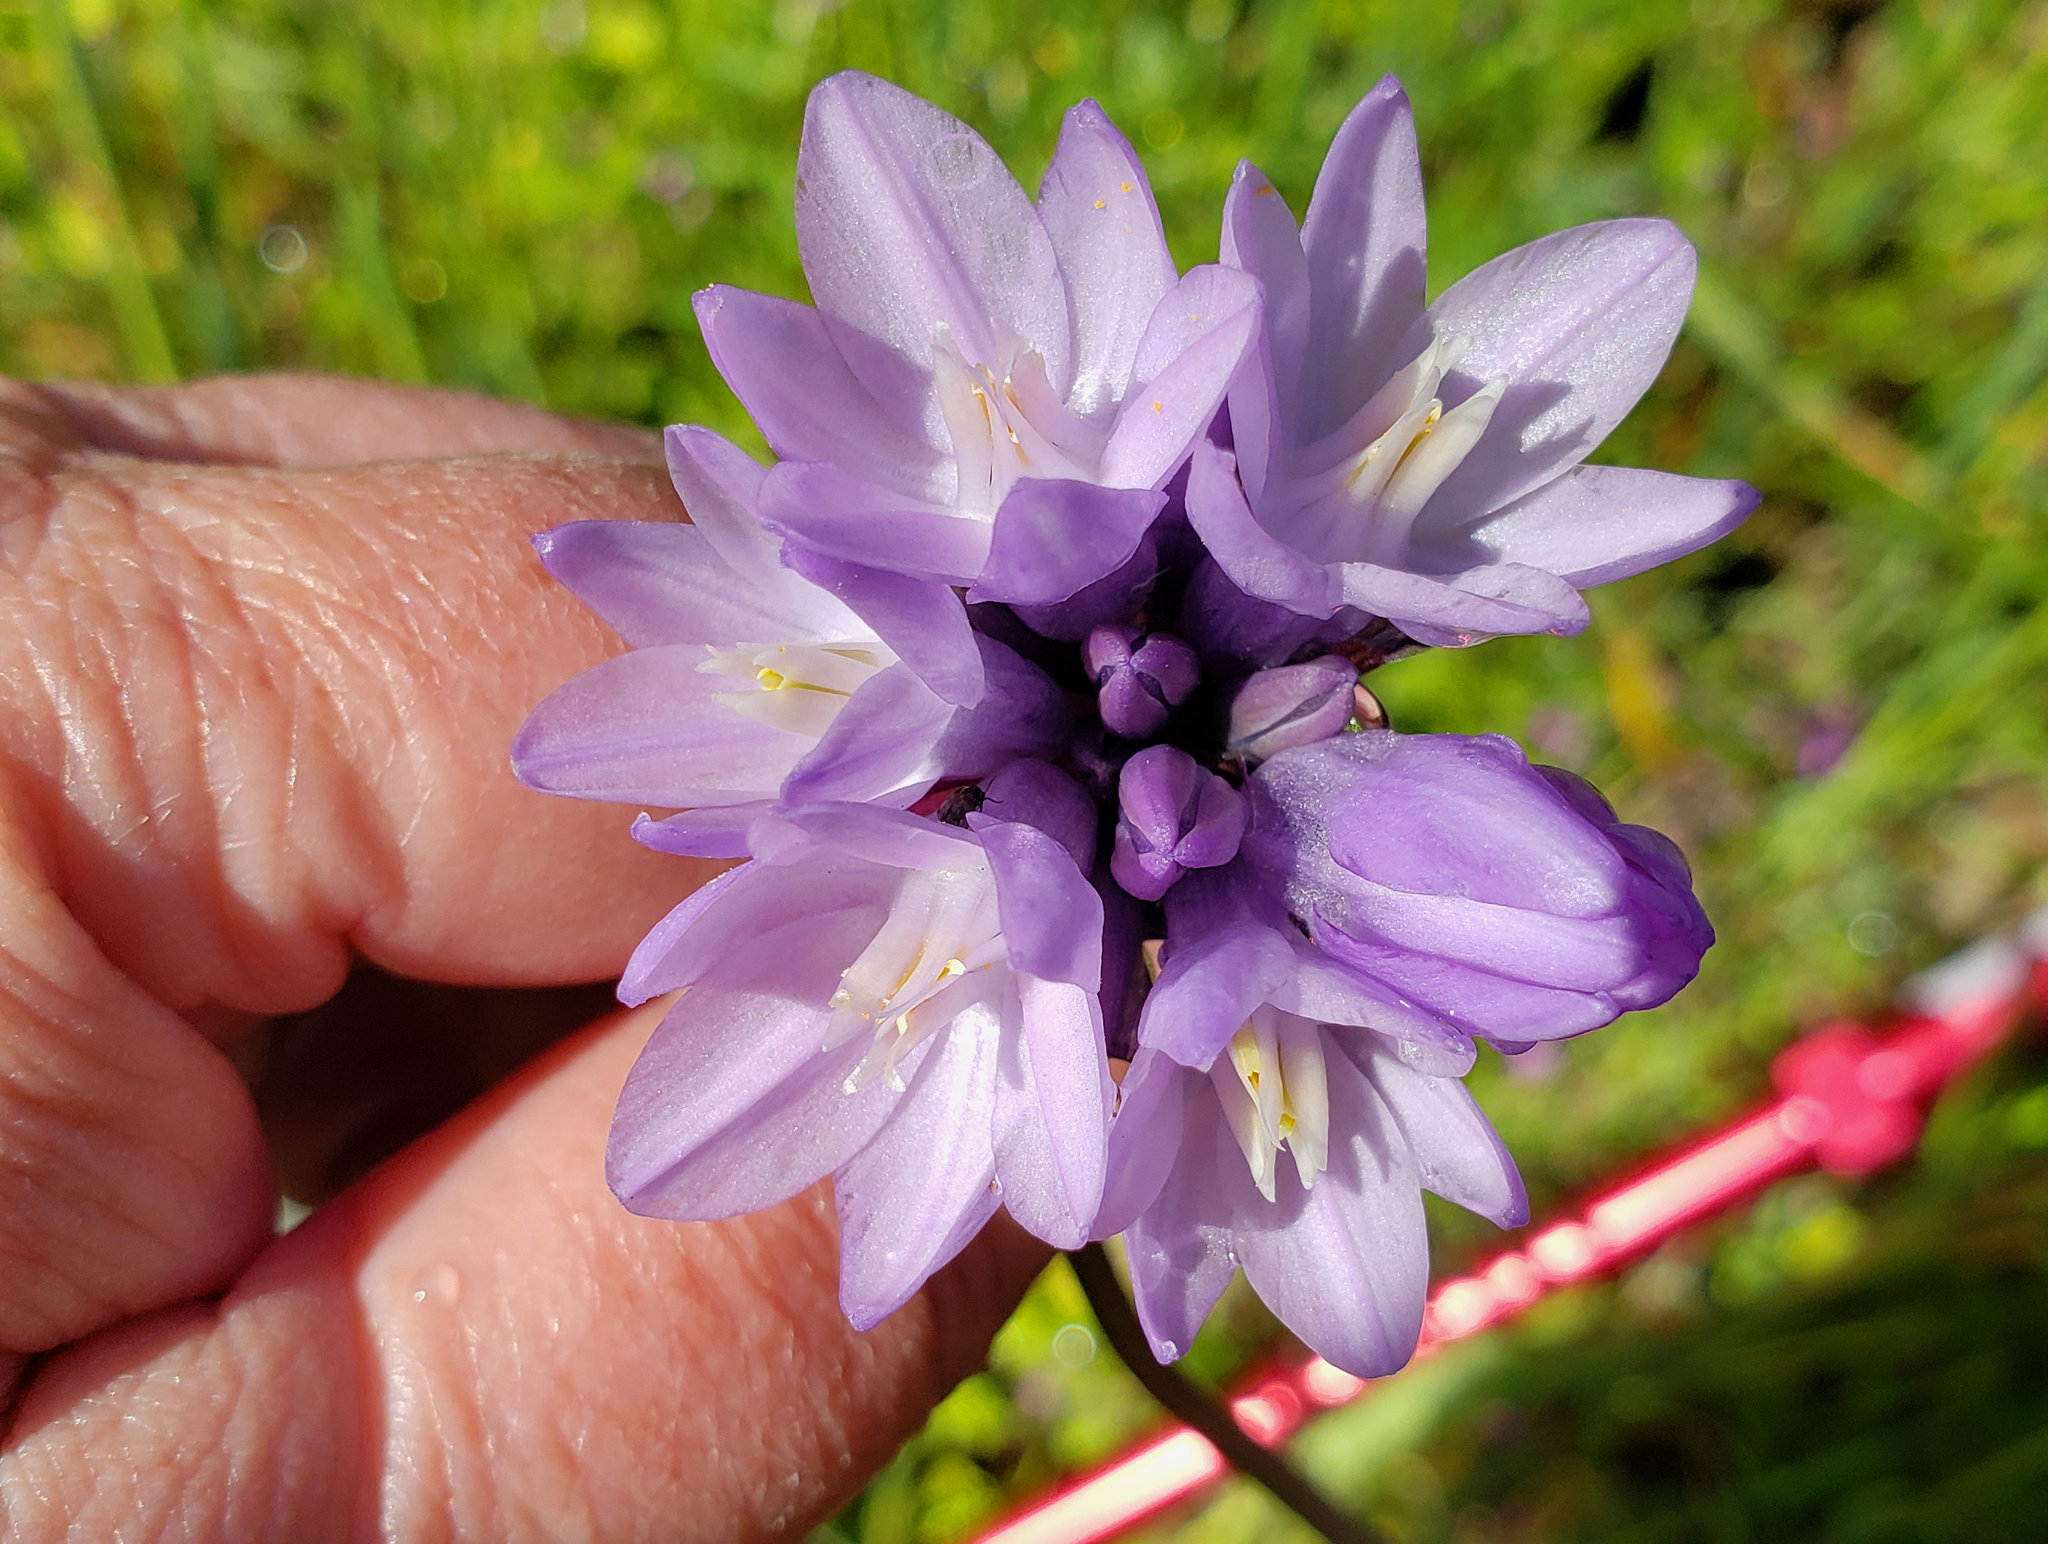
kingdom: Plantae
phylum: Tracheophyta
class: Liliopsida
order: Asparagales
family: Asparagaceae
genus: Dipterostemon
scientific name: Dipterostemon capitatus
